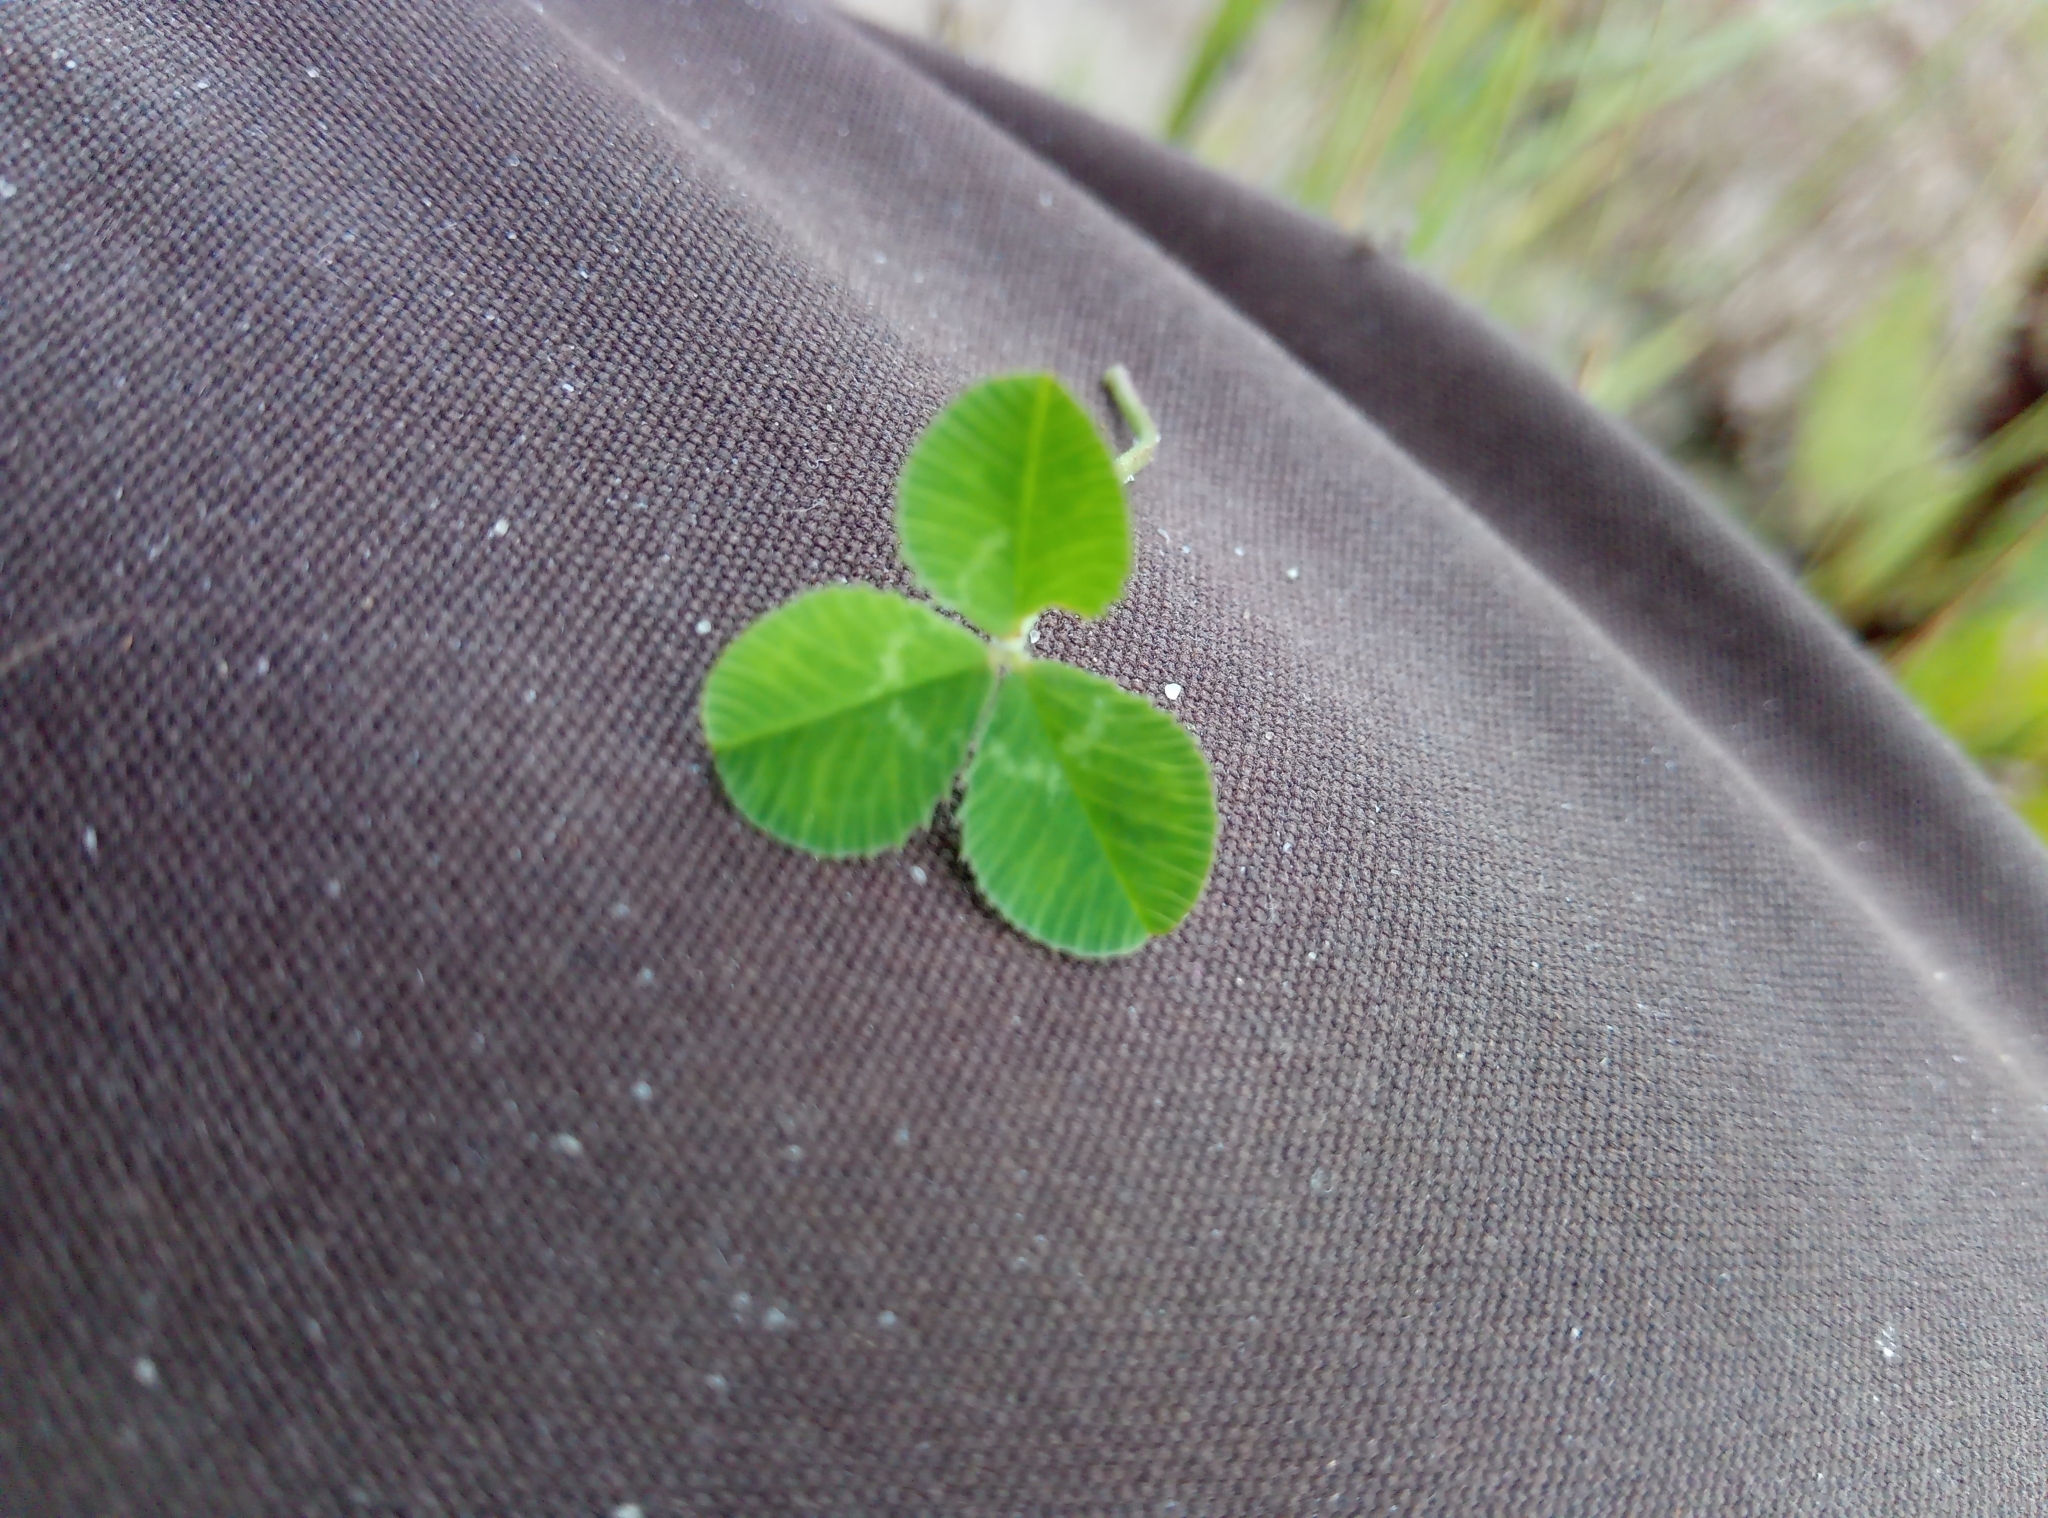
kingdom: Plantae
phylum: Tracheophyta
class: Magnoliopsida
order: Fabales
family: Fabaceae
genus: Trifolium
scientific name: Trifolium repens
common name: White clover
